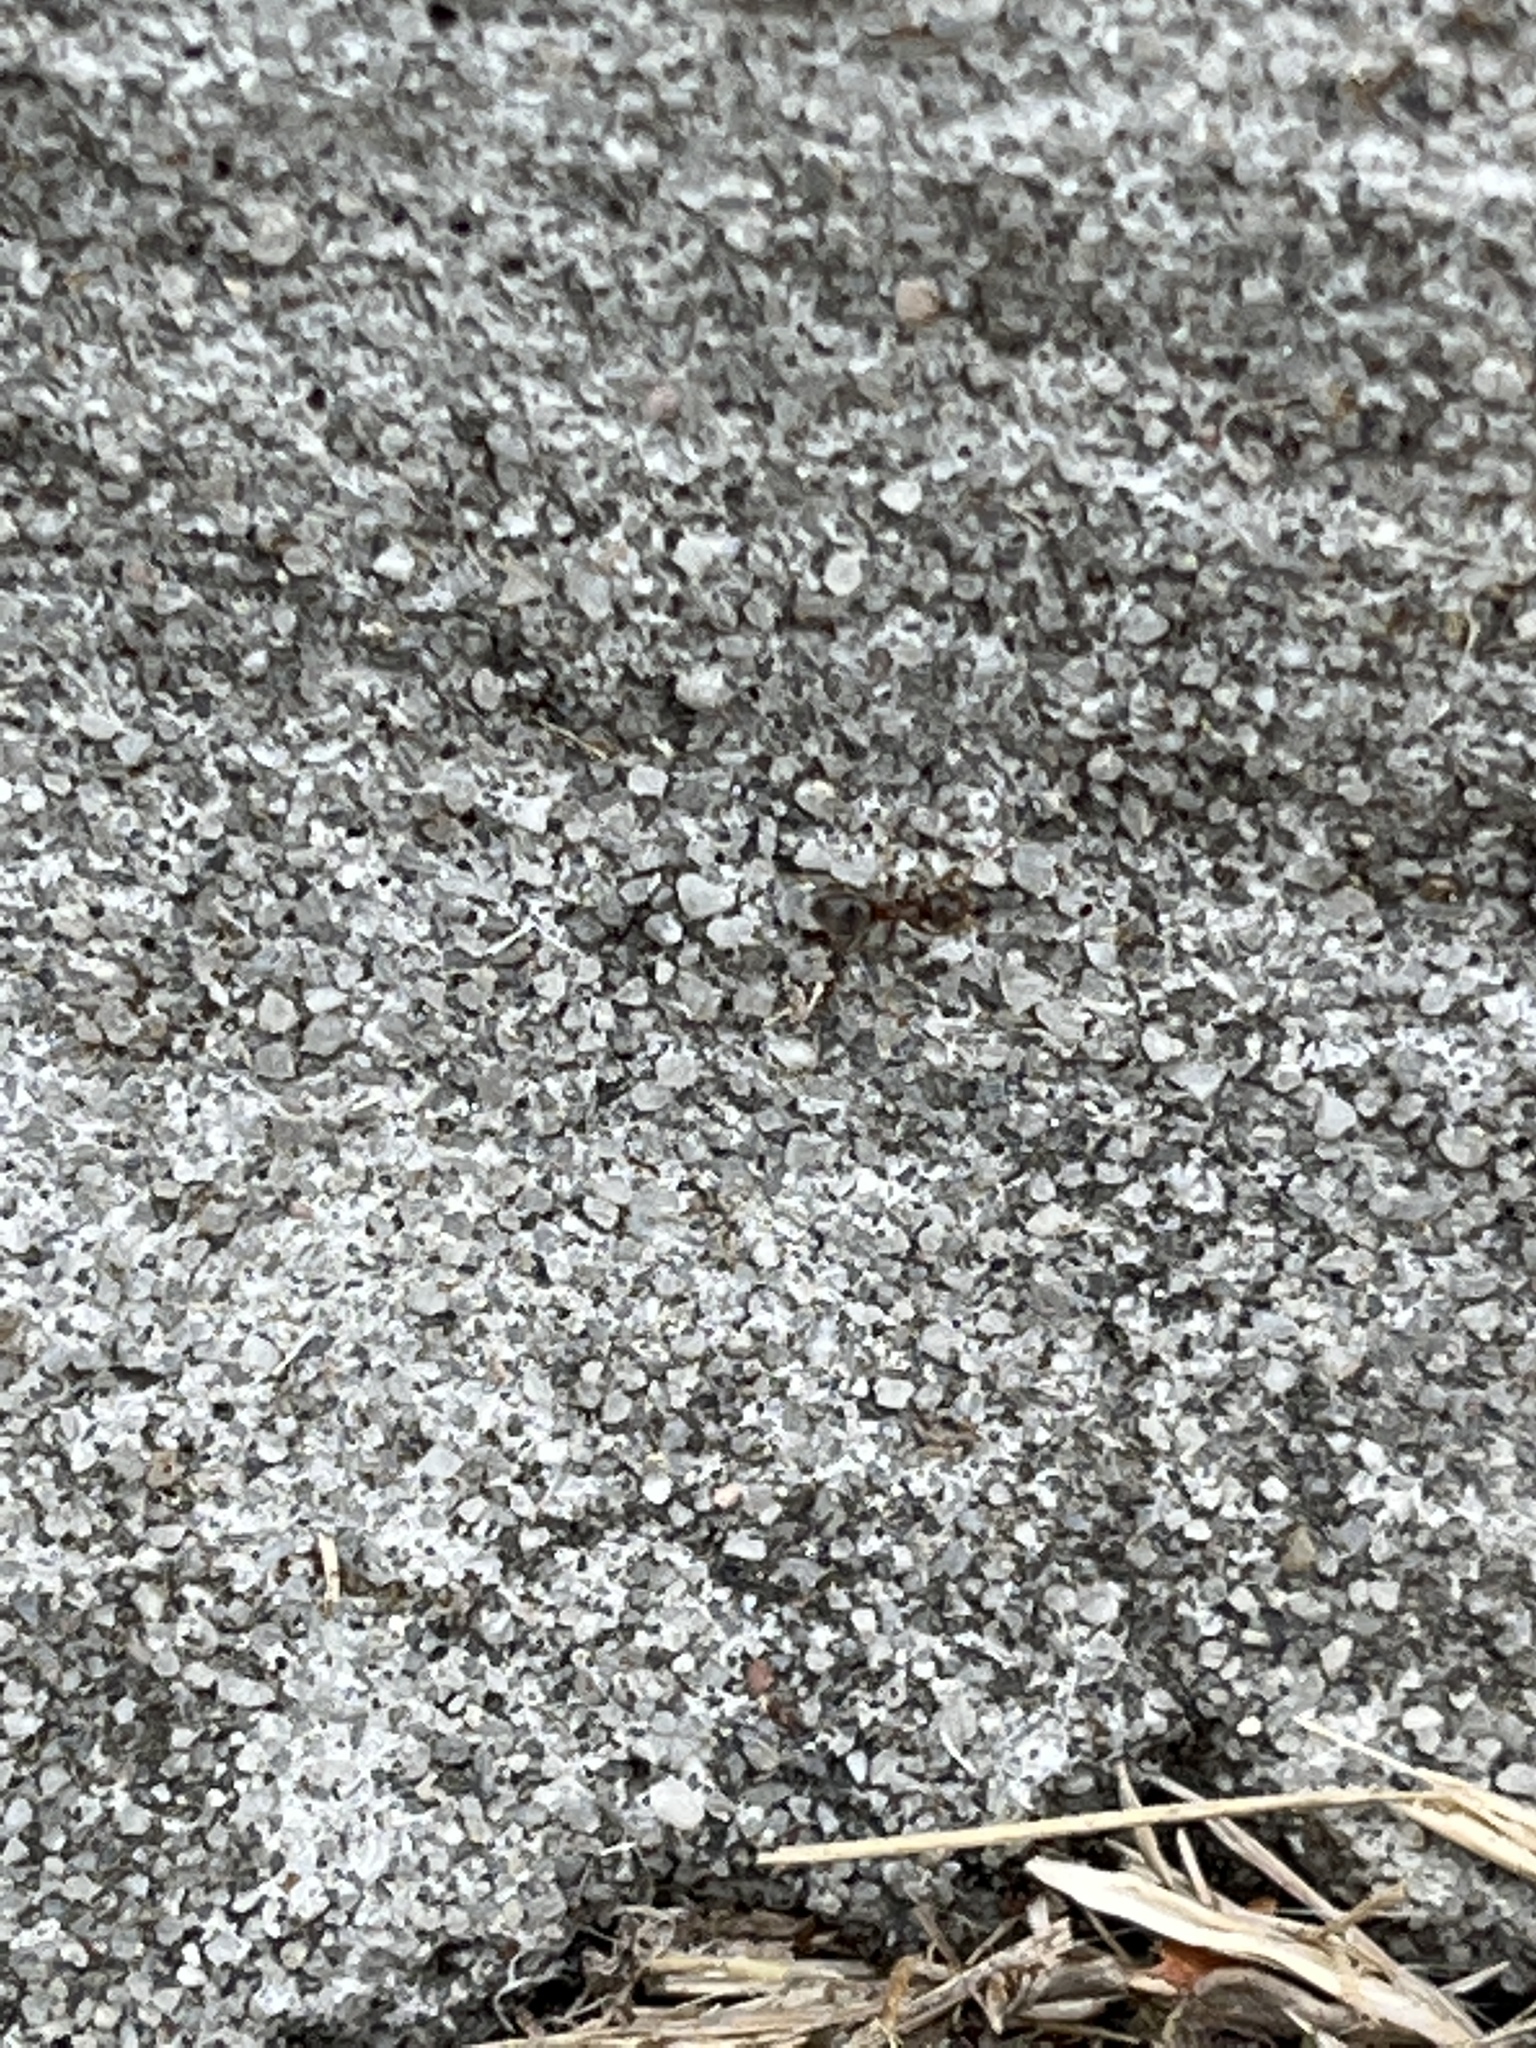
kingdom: Animalia
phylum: Arthropoda
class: Insecta
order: Hymenoptera
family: Formicidae
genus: Lasius
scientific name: Lasius neoniger
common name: Turfgrass ant
